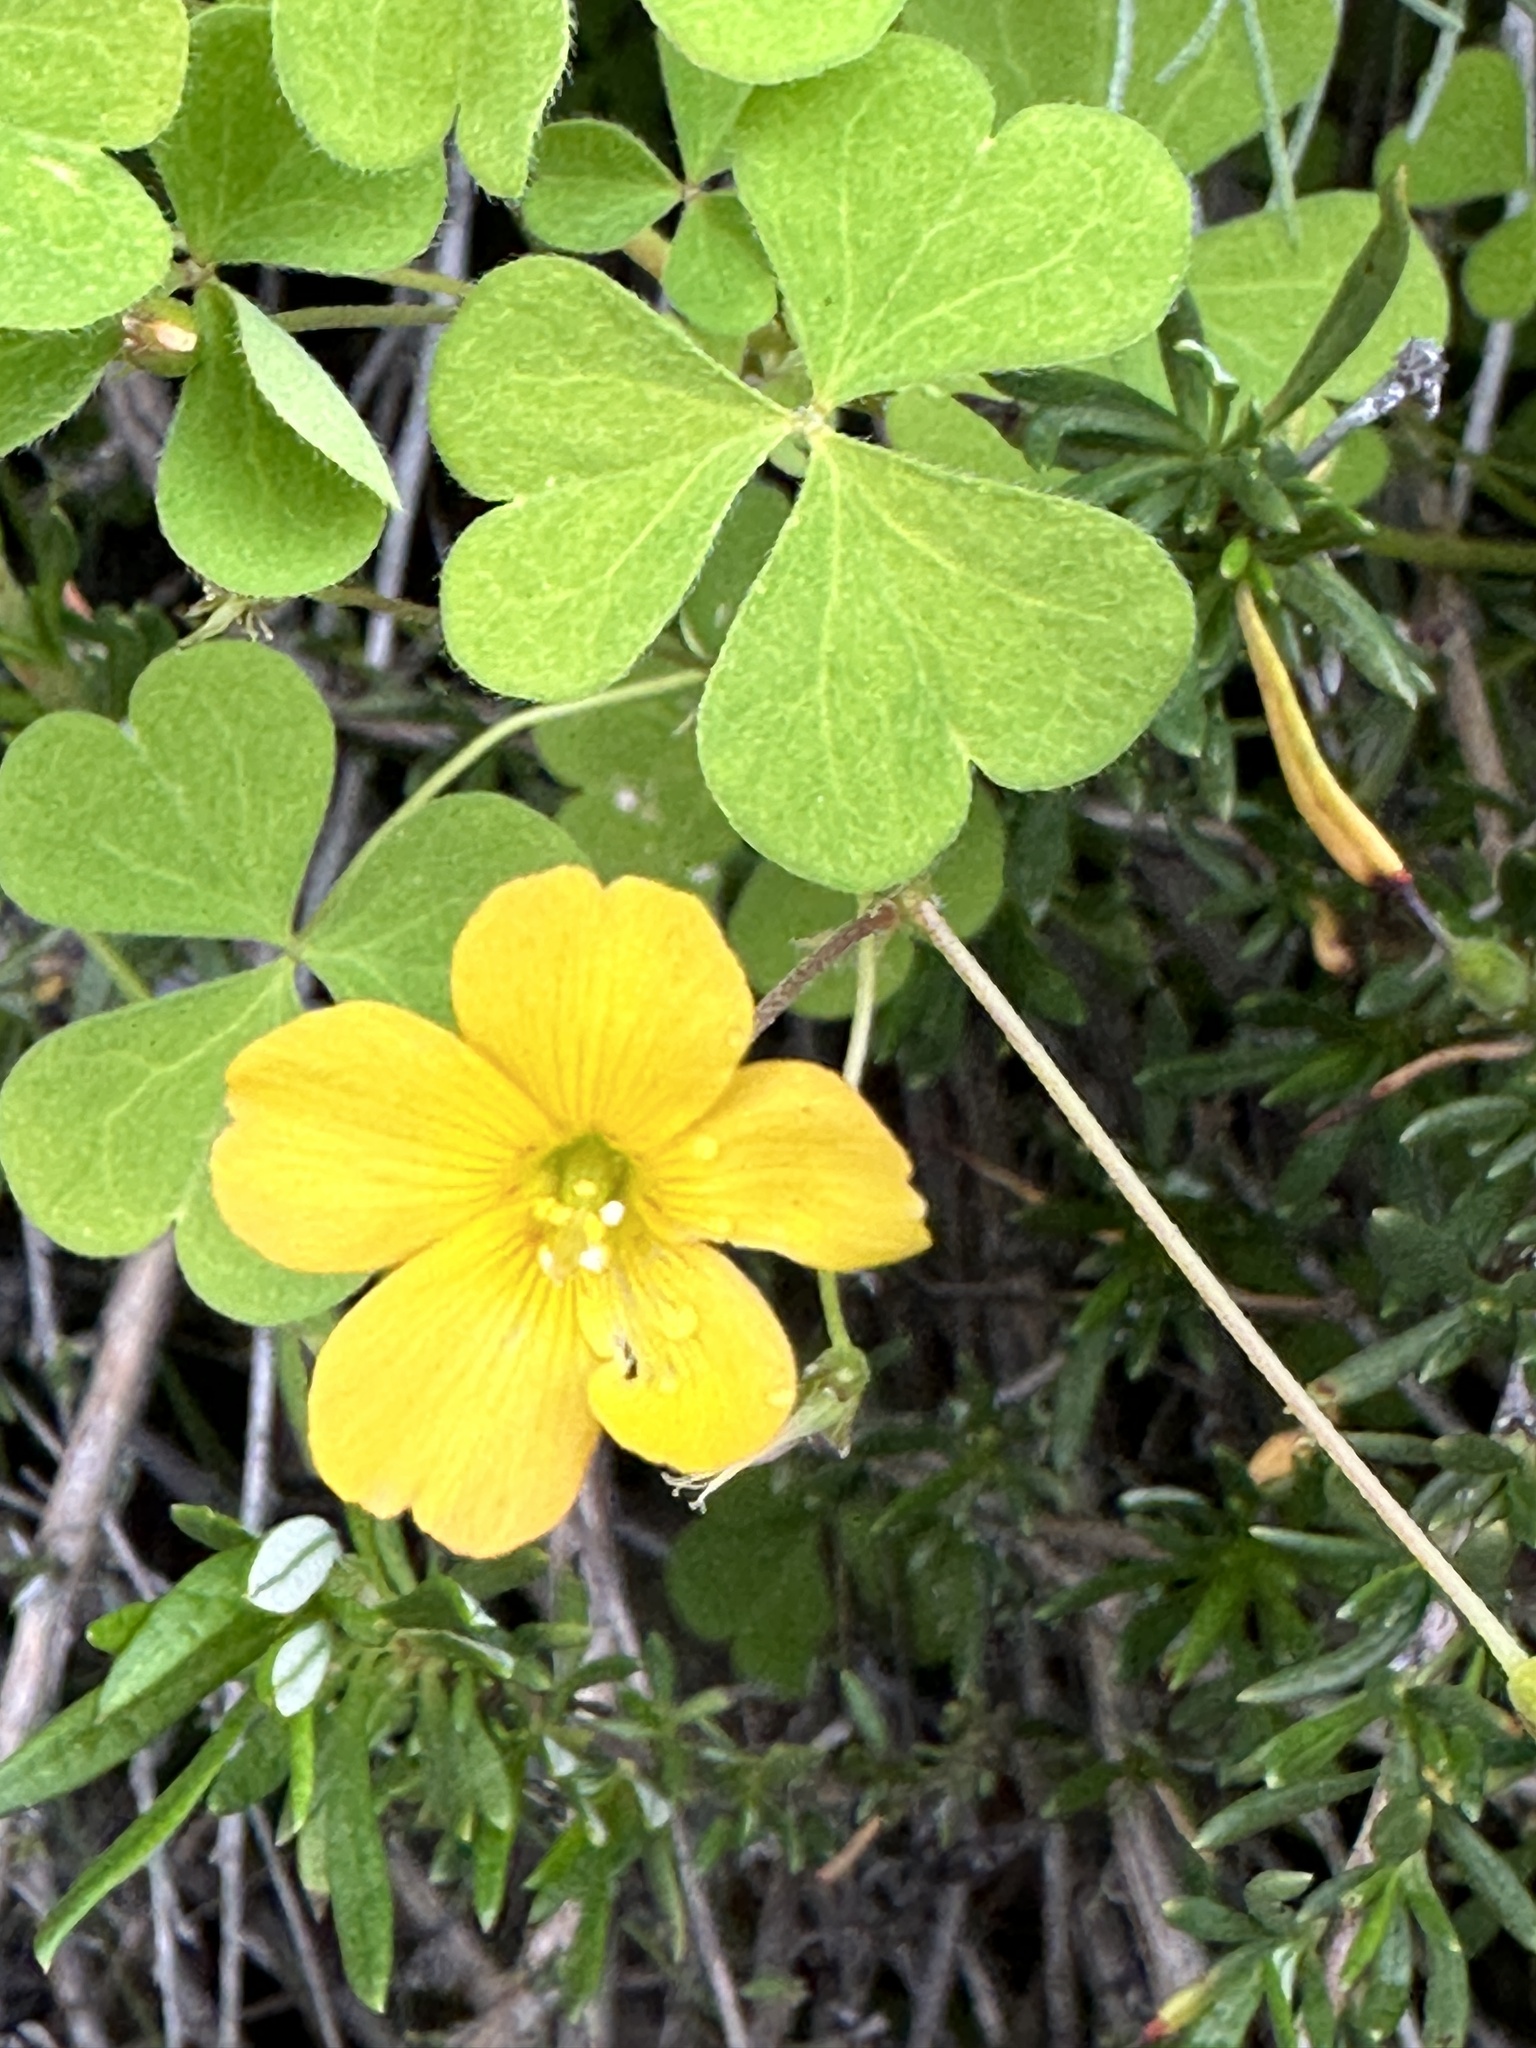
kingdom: Plantae
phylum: Tracheophyta
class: Magnoliopsida
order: Oxalidales
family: Oxalidaceae
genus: Oxalis
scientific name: Oxalis californica
